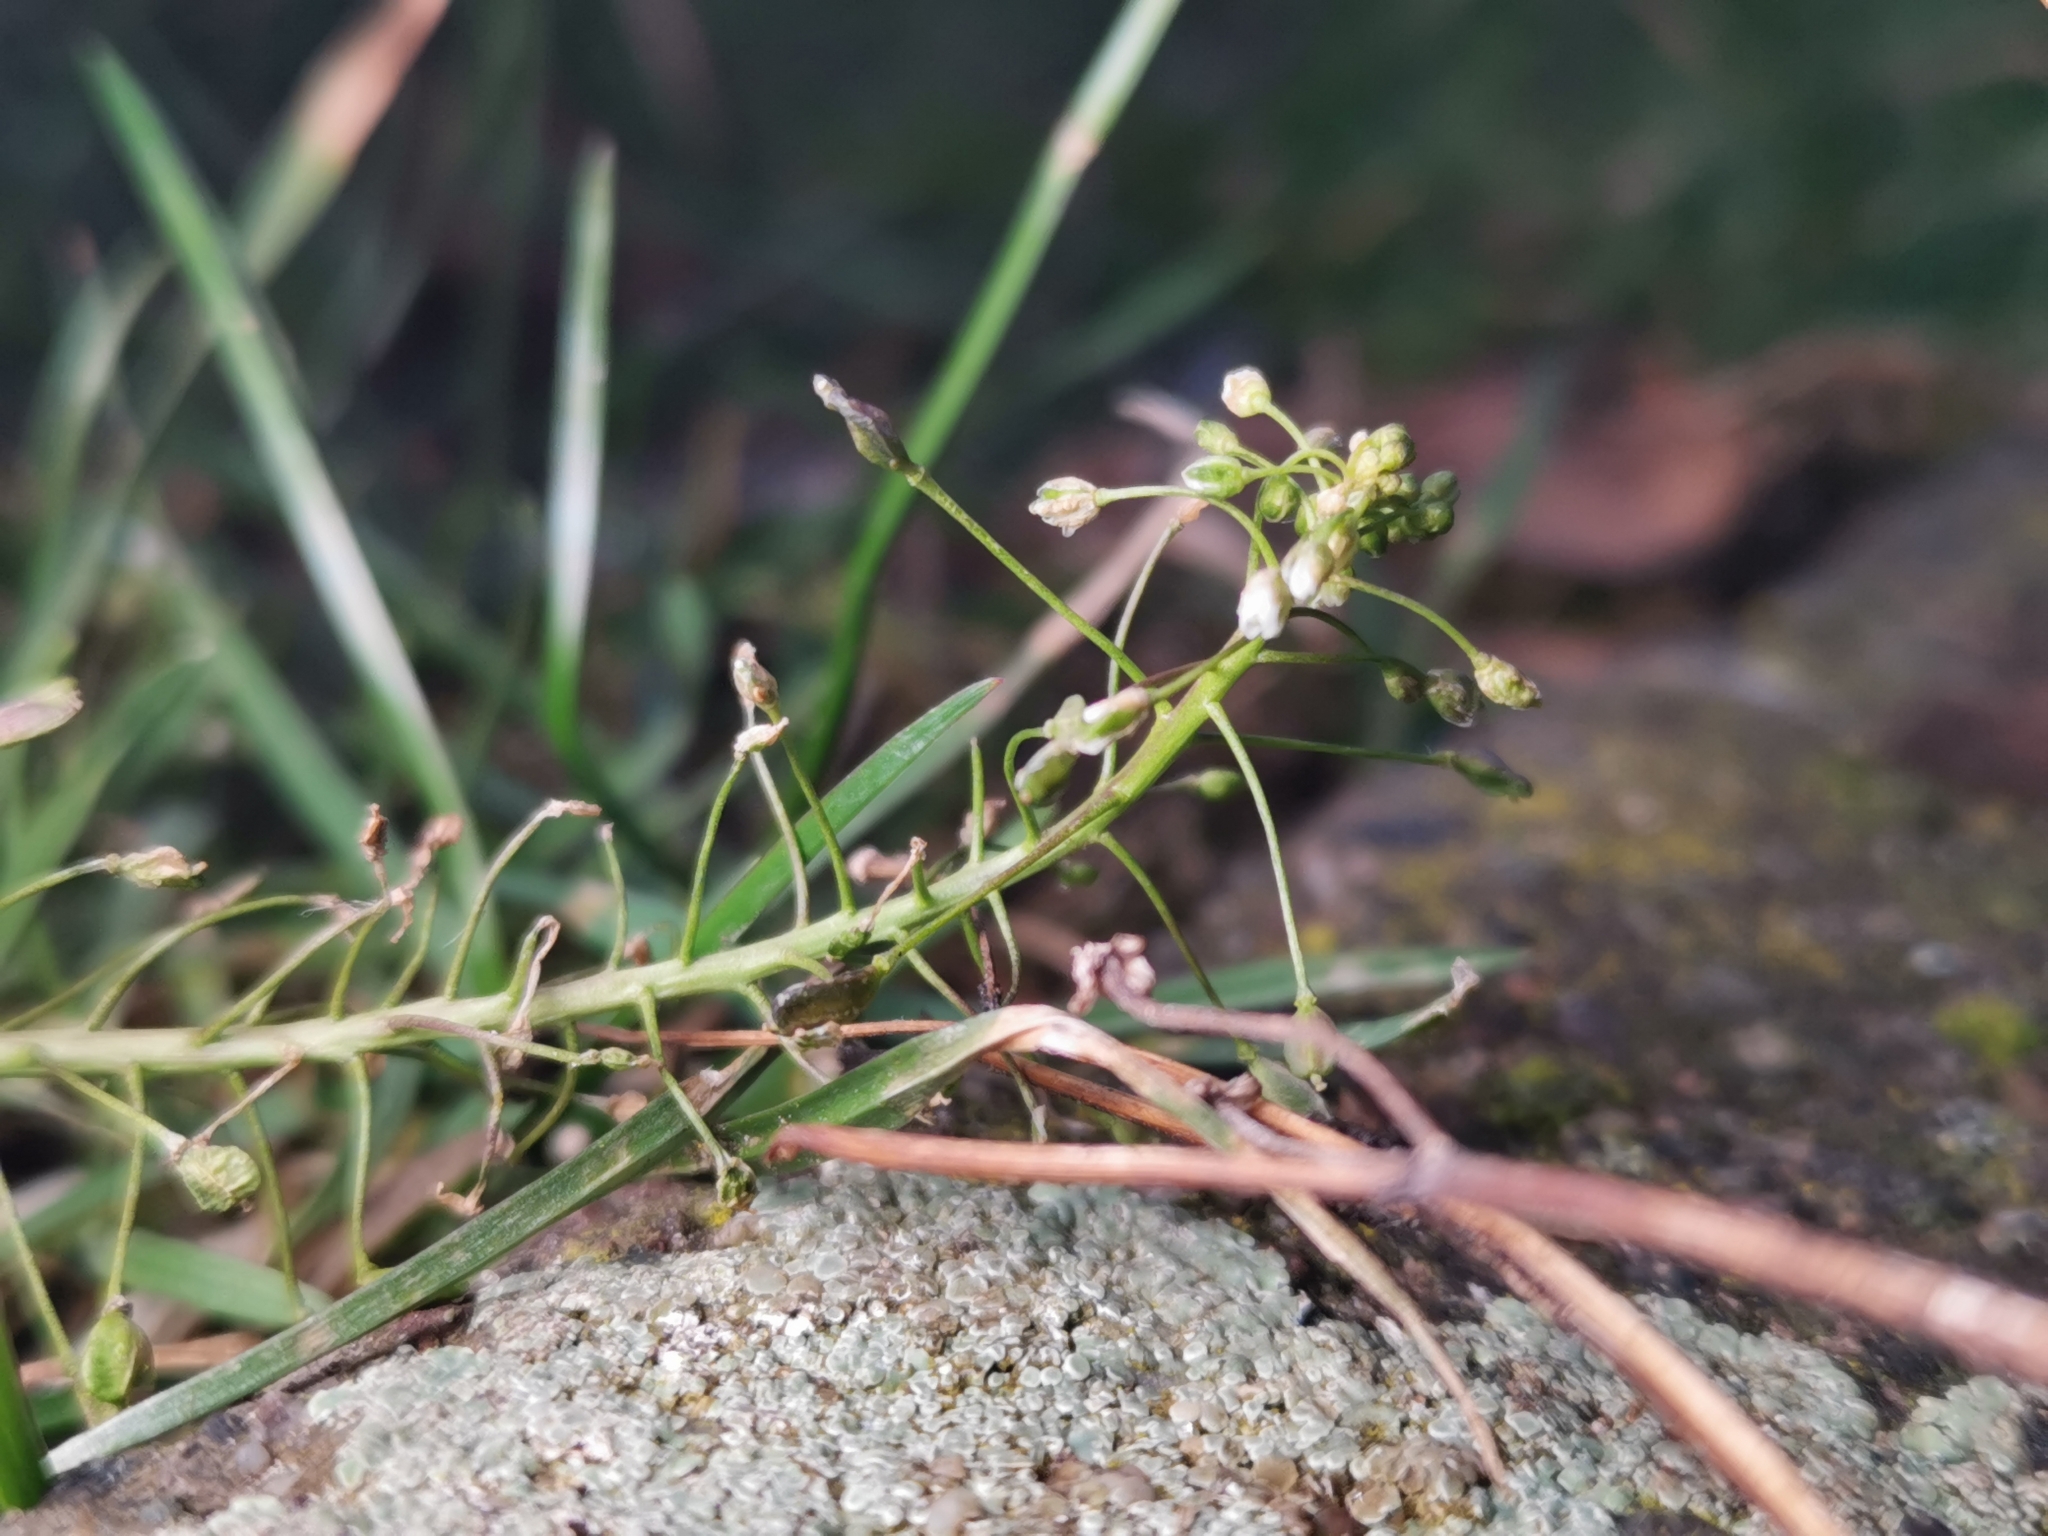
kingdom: Plantae
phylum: Tracheophyta
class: Magnoliopsida
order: Brassicales
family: Brassicaceae
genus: Capsella
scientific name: Capsella bursa-pastoris
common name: Shepherd's purse
